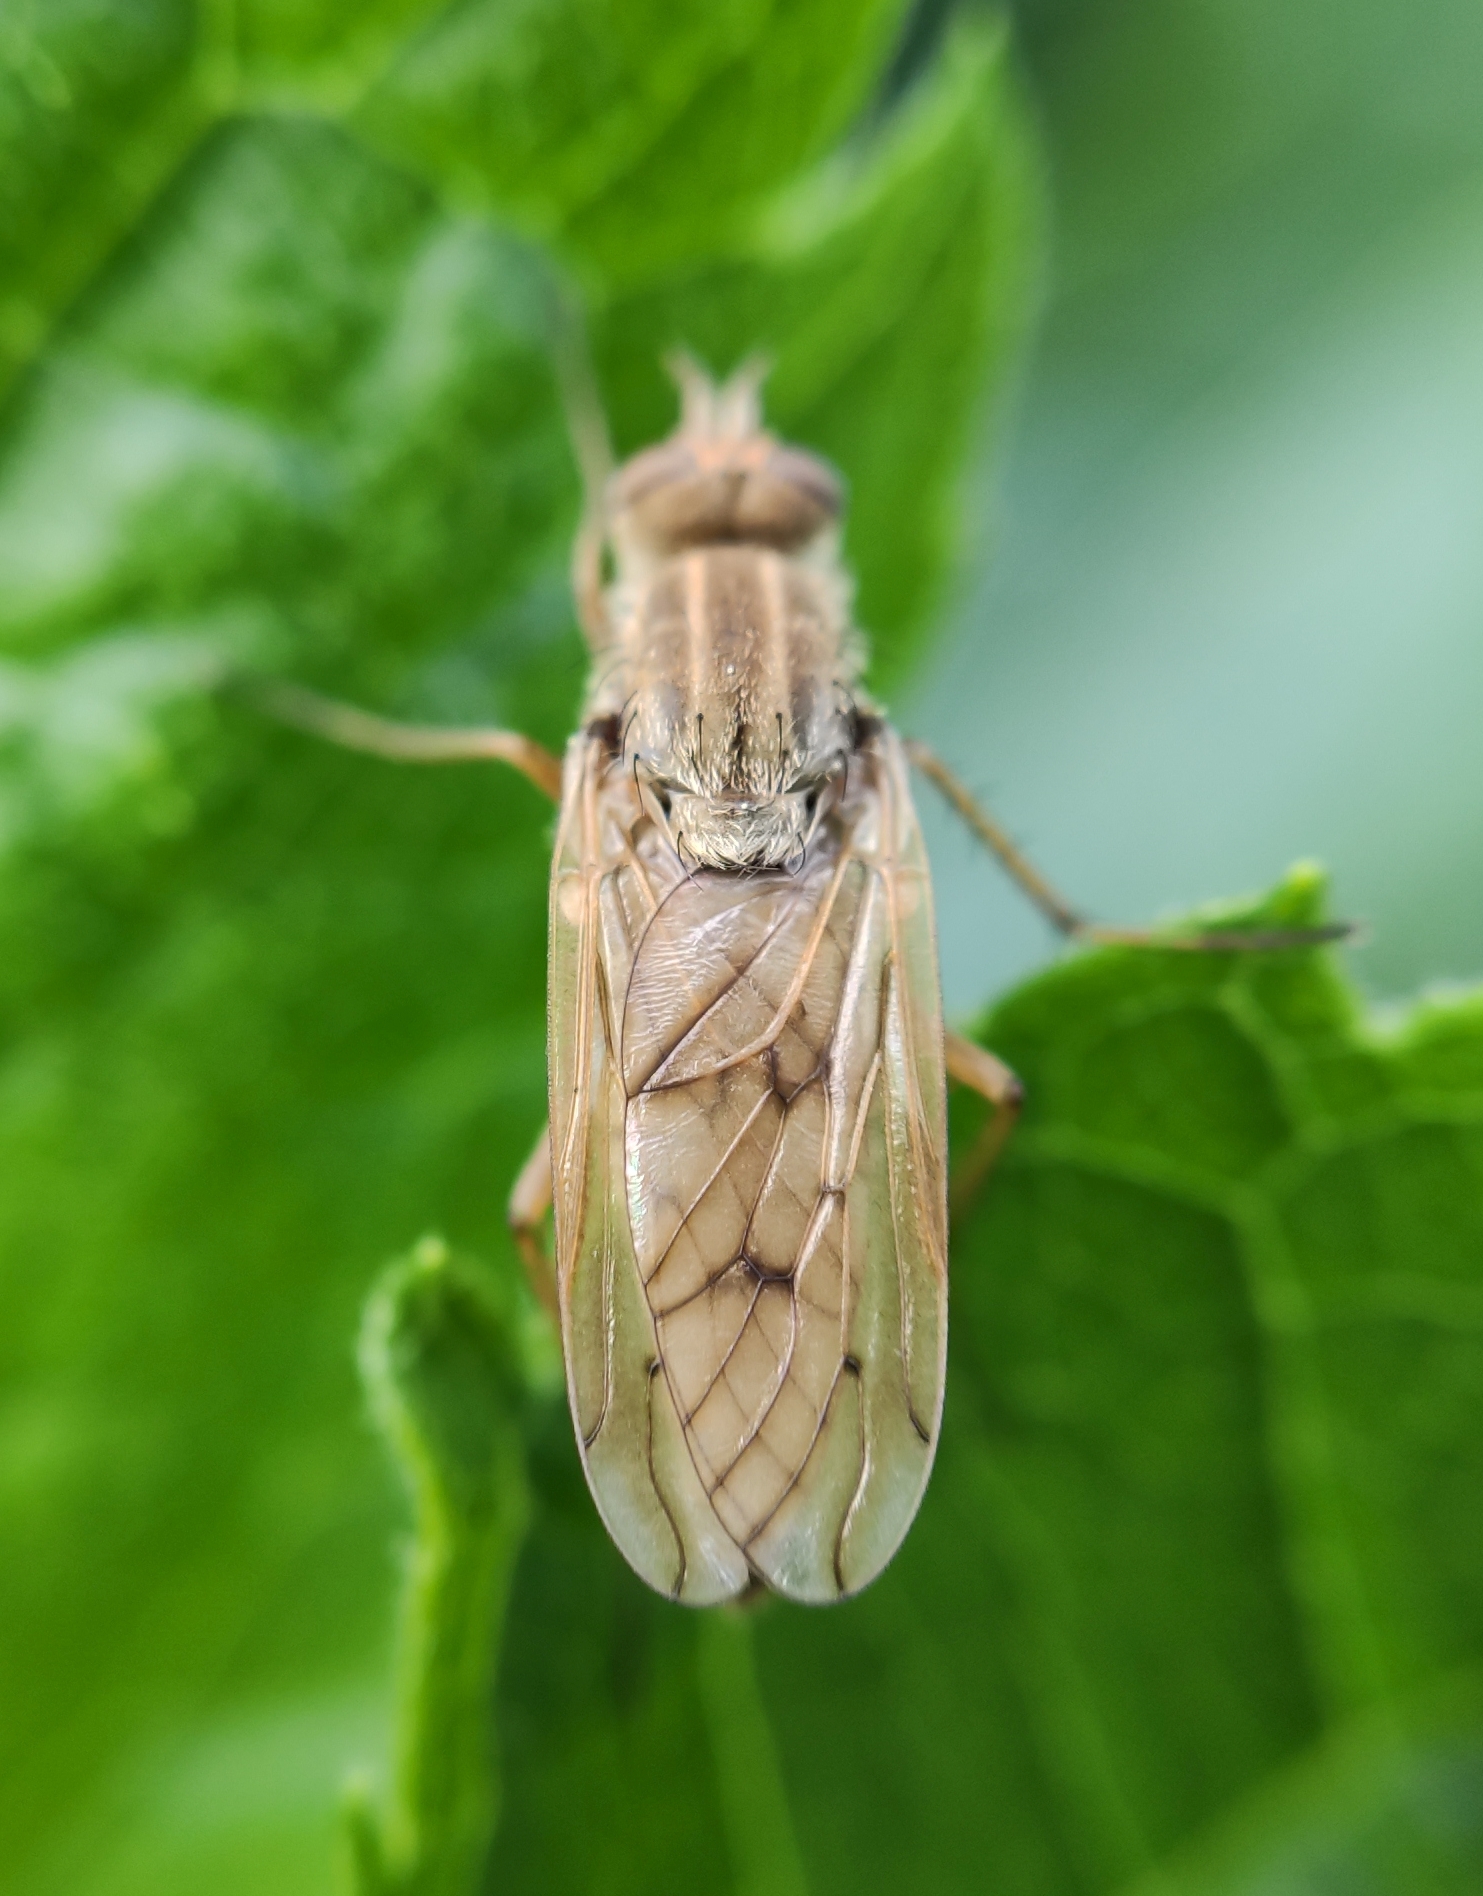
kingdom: Animalia
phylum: Arthropoda
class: Insecta
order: Diptera
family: Therevidae
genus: Dialineura
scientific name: Dialineura anilis
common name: Swollen silver-stiletto
